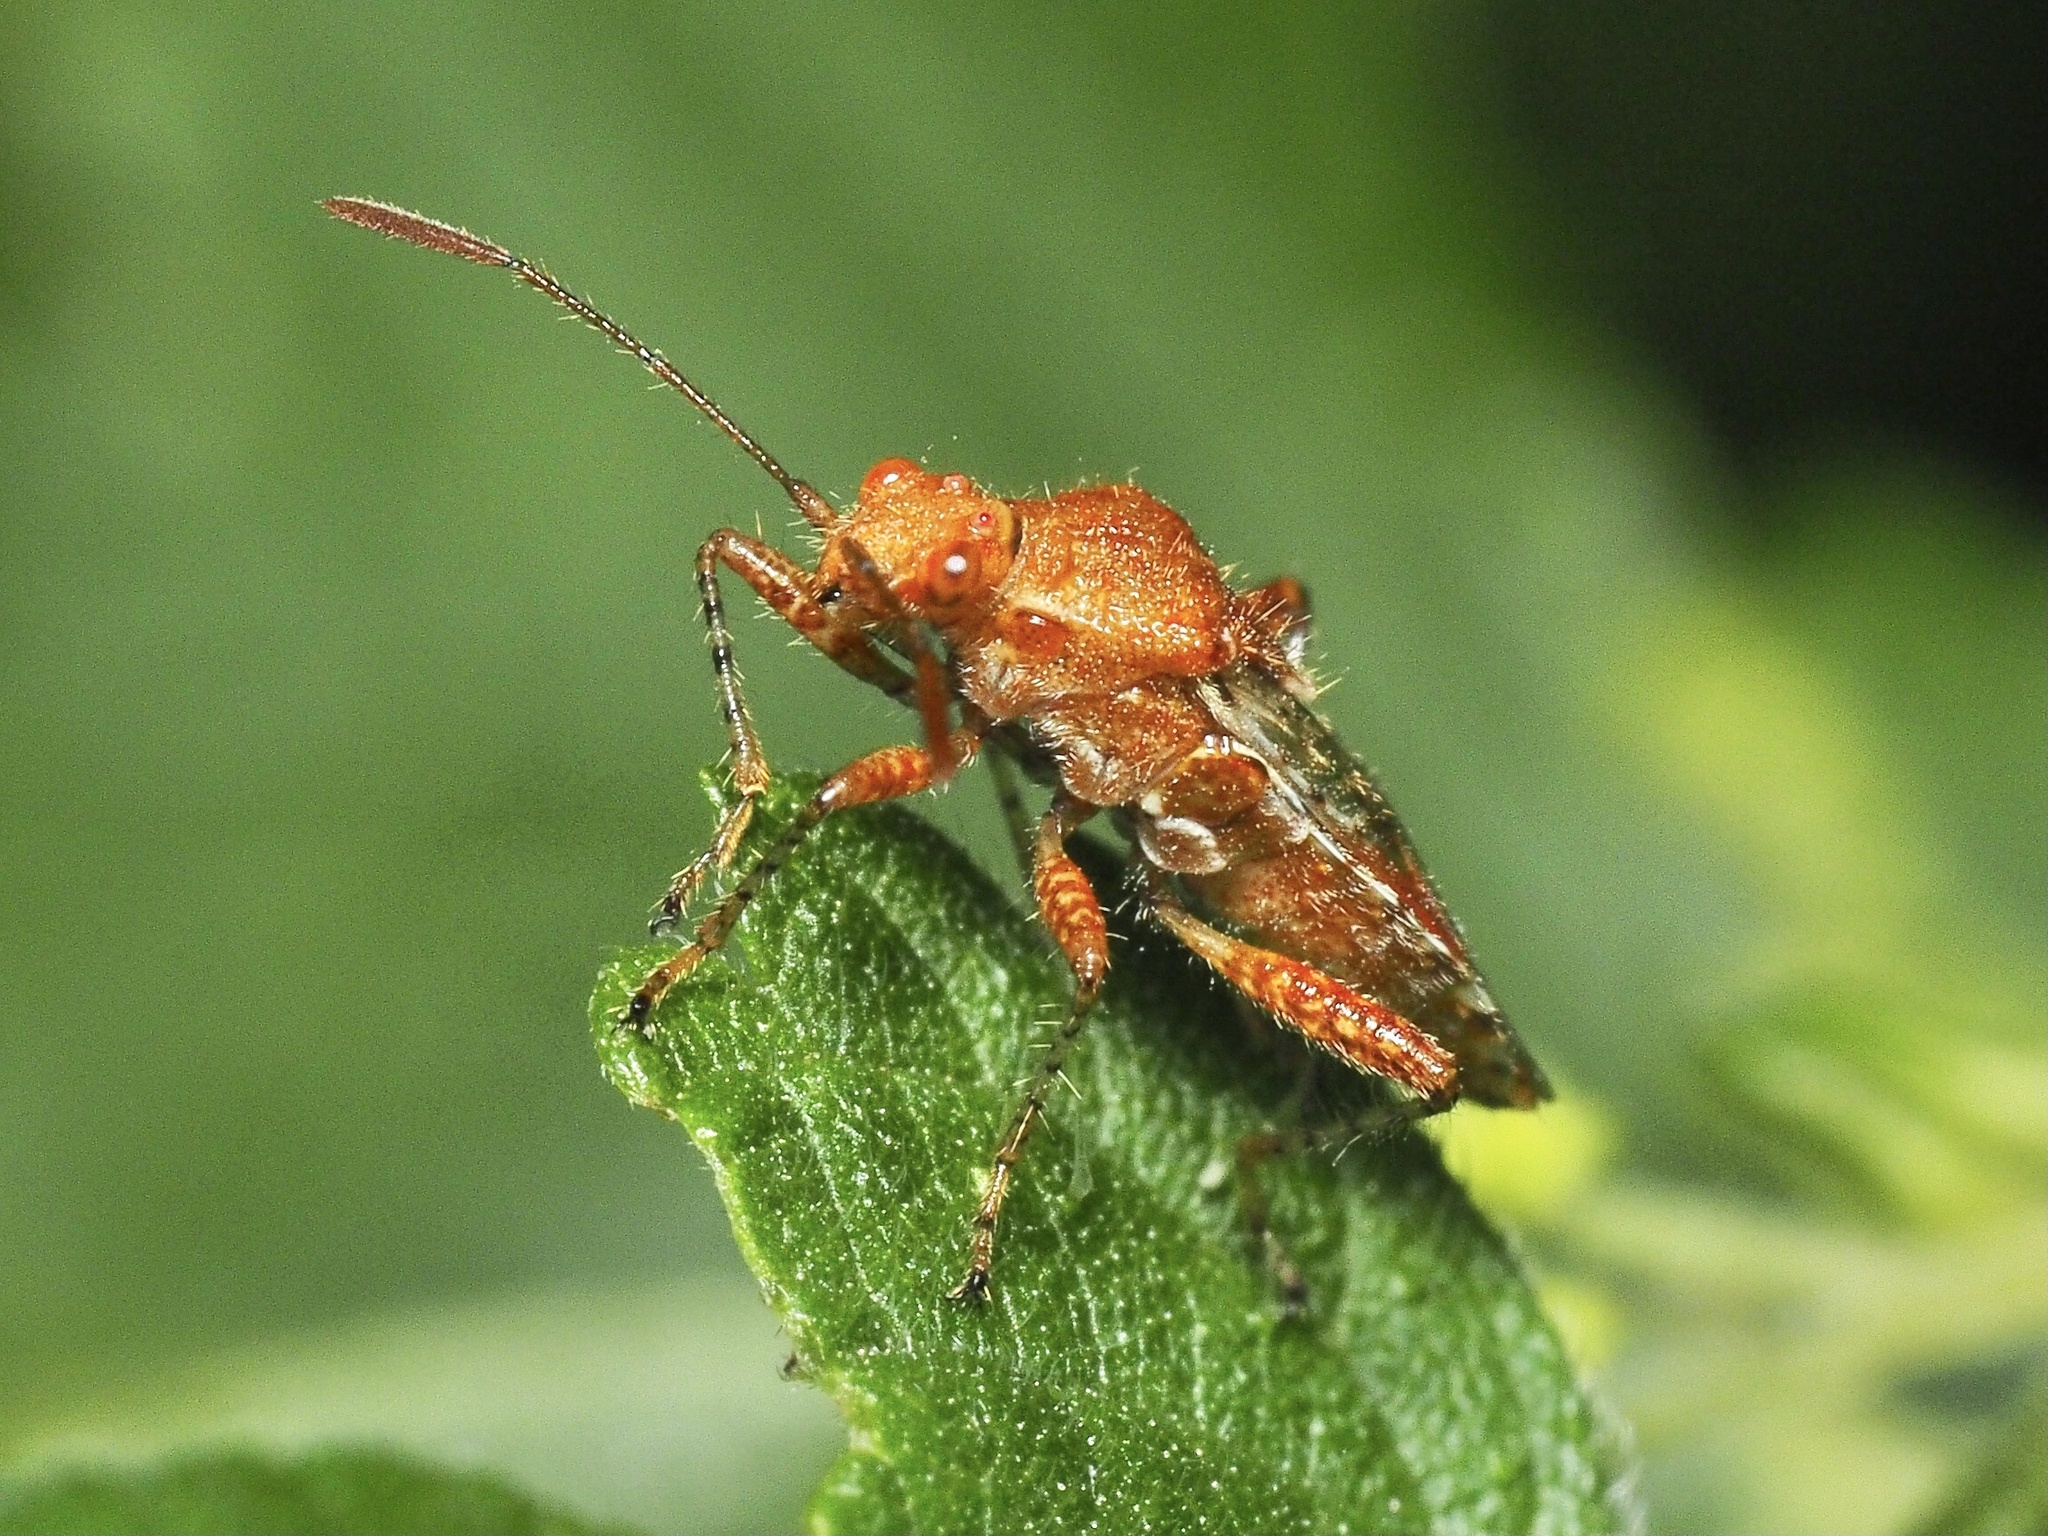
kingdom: Animalia
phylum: Arthropoda
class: Insecta
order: Hemiptera
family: Rhopalidae
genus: Rhopalus
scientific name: Rhopalus subrufus
